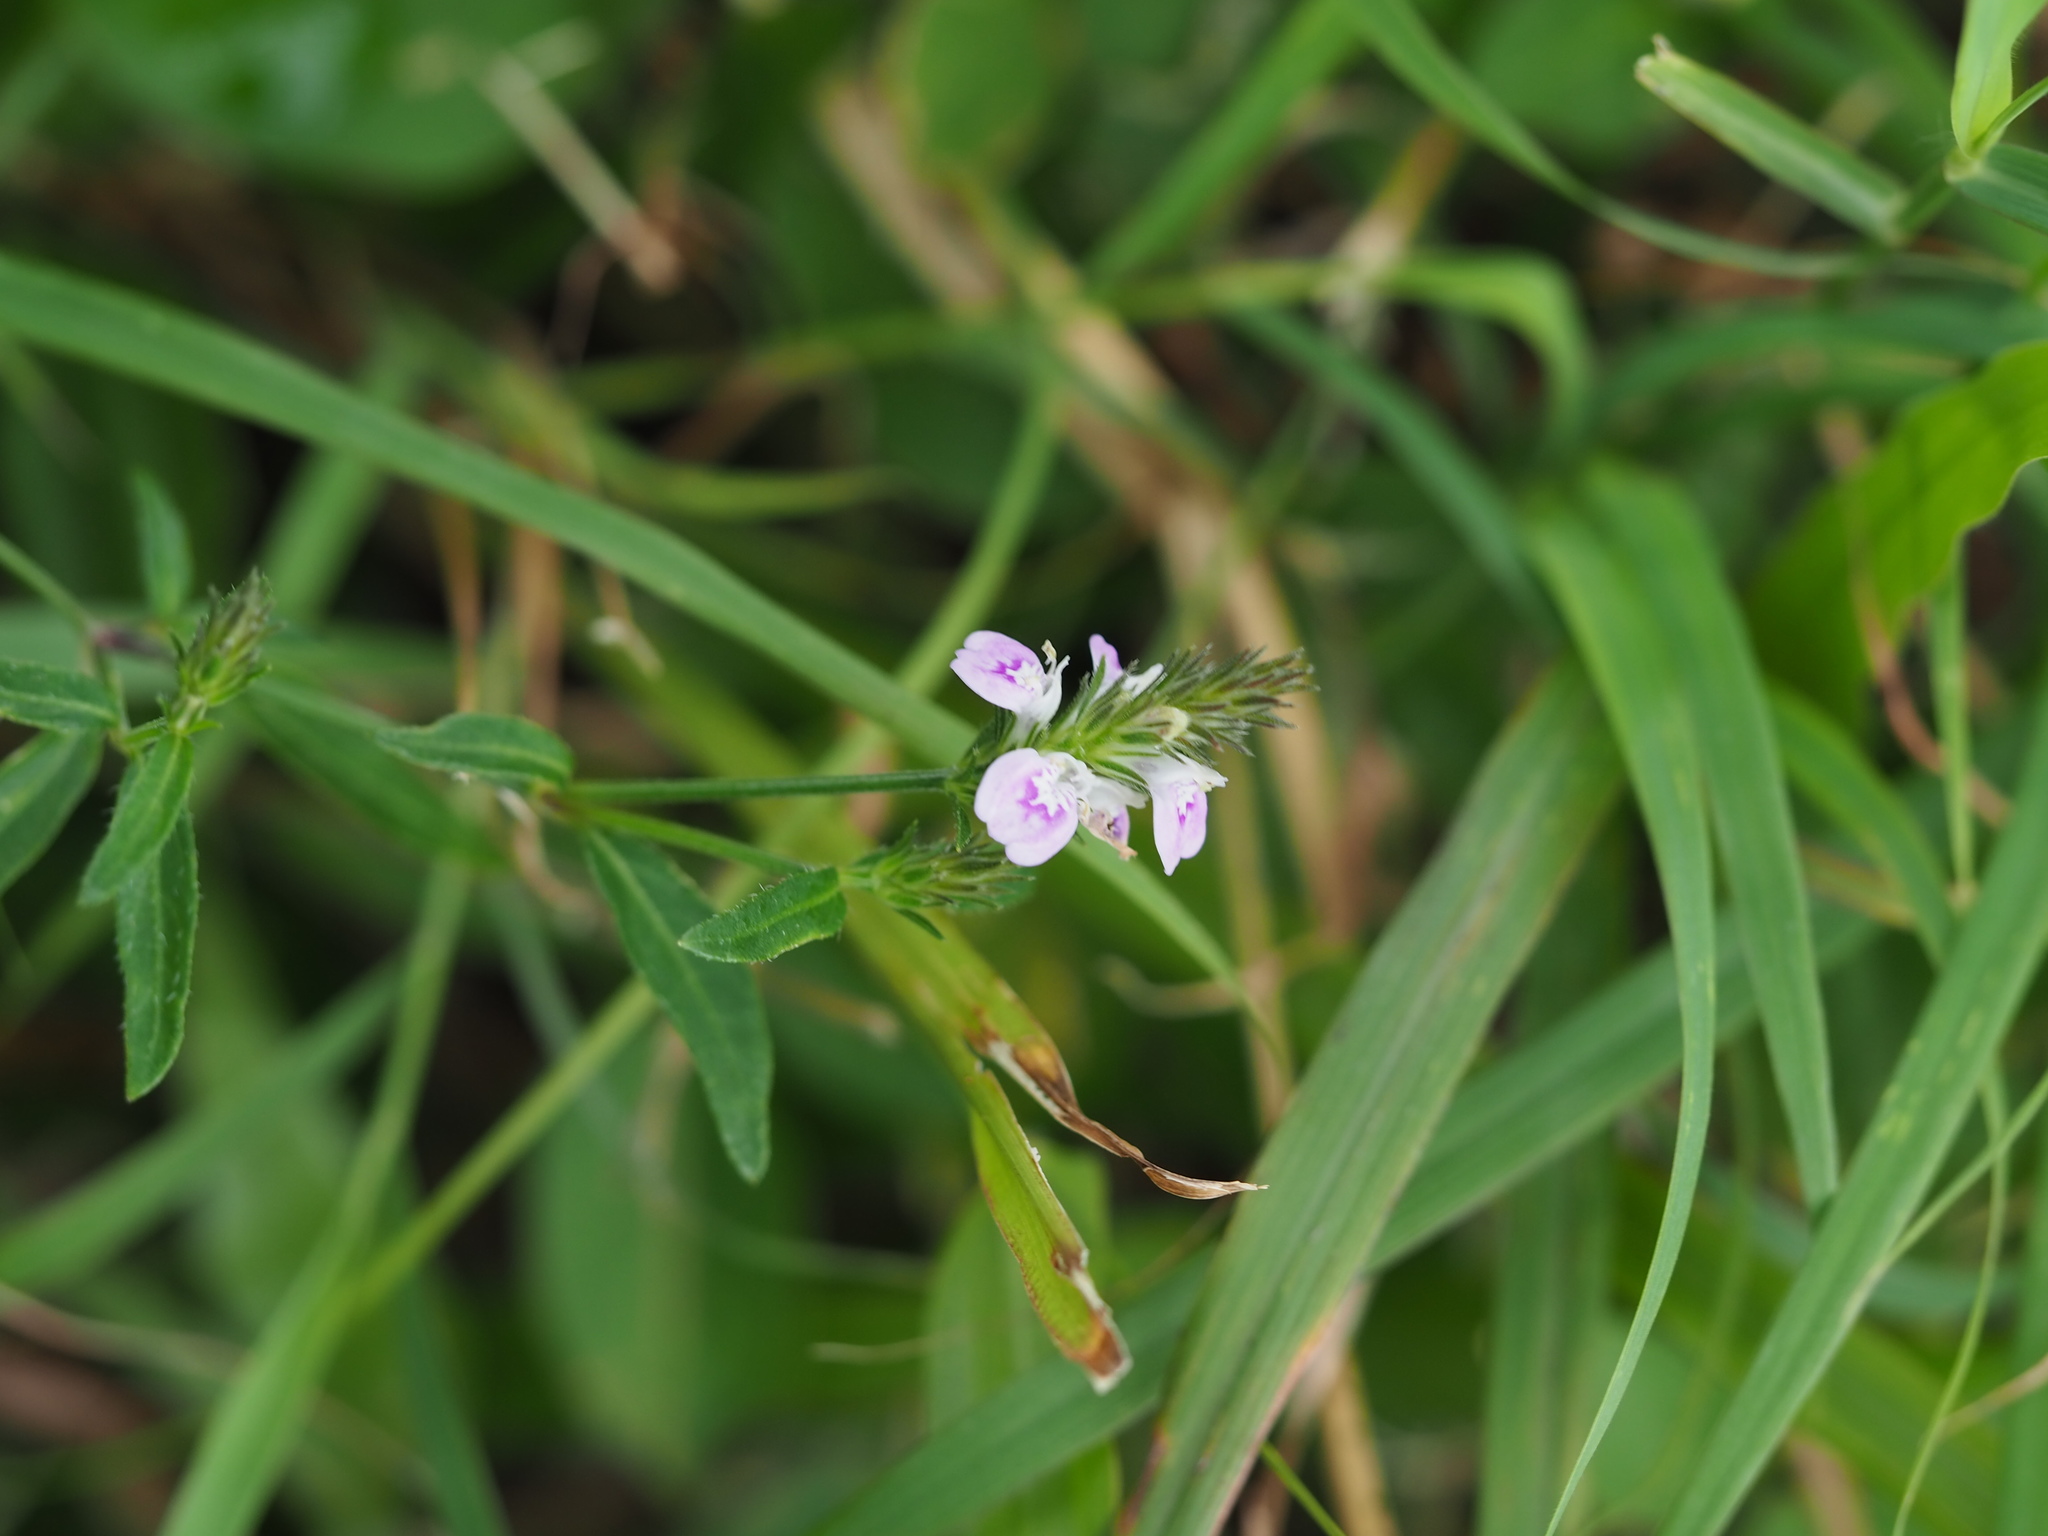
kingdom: Plantae
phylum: Tracheophyta
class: Magnoliopsida
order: Lamiales
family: Acanthaceae
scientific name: Acanthaceae
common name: Acanthaceae
